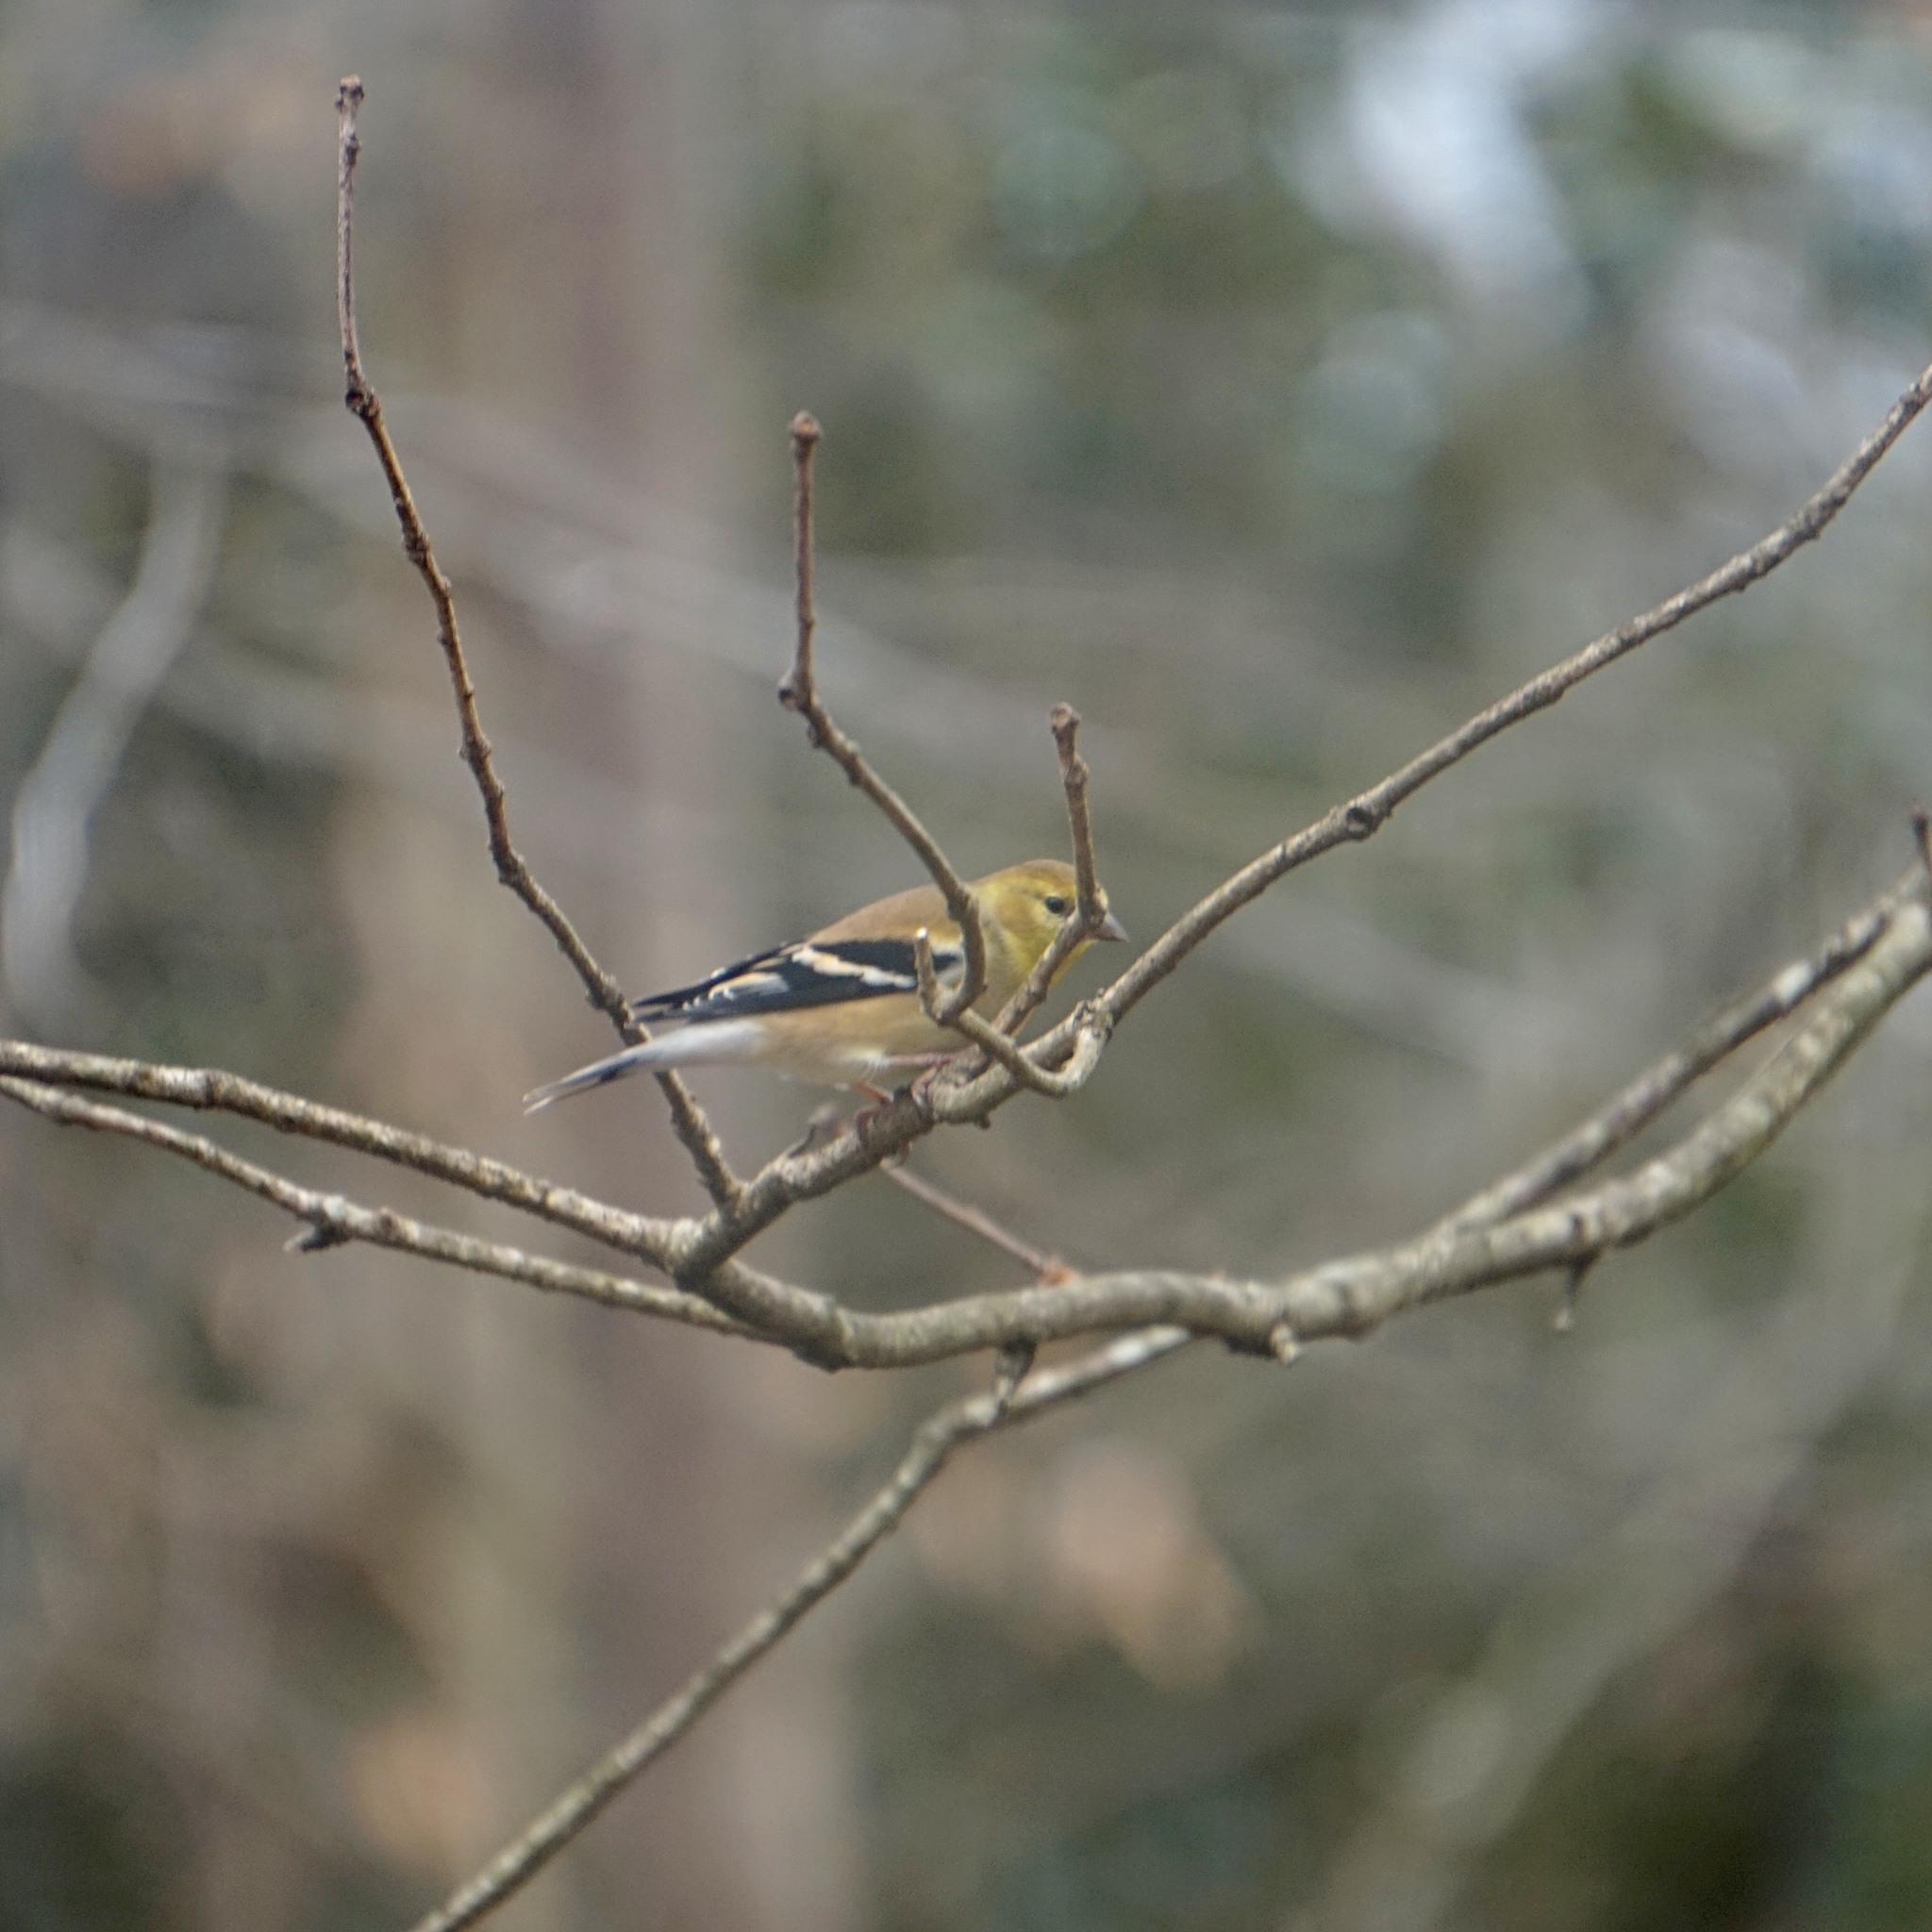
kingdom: Animalia
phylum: Chordata
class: Aves
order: Passeriformes
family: Fringillidae
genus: Spinus
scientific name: Spinus tristis
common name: American goldfinch
